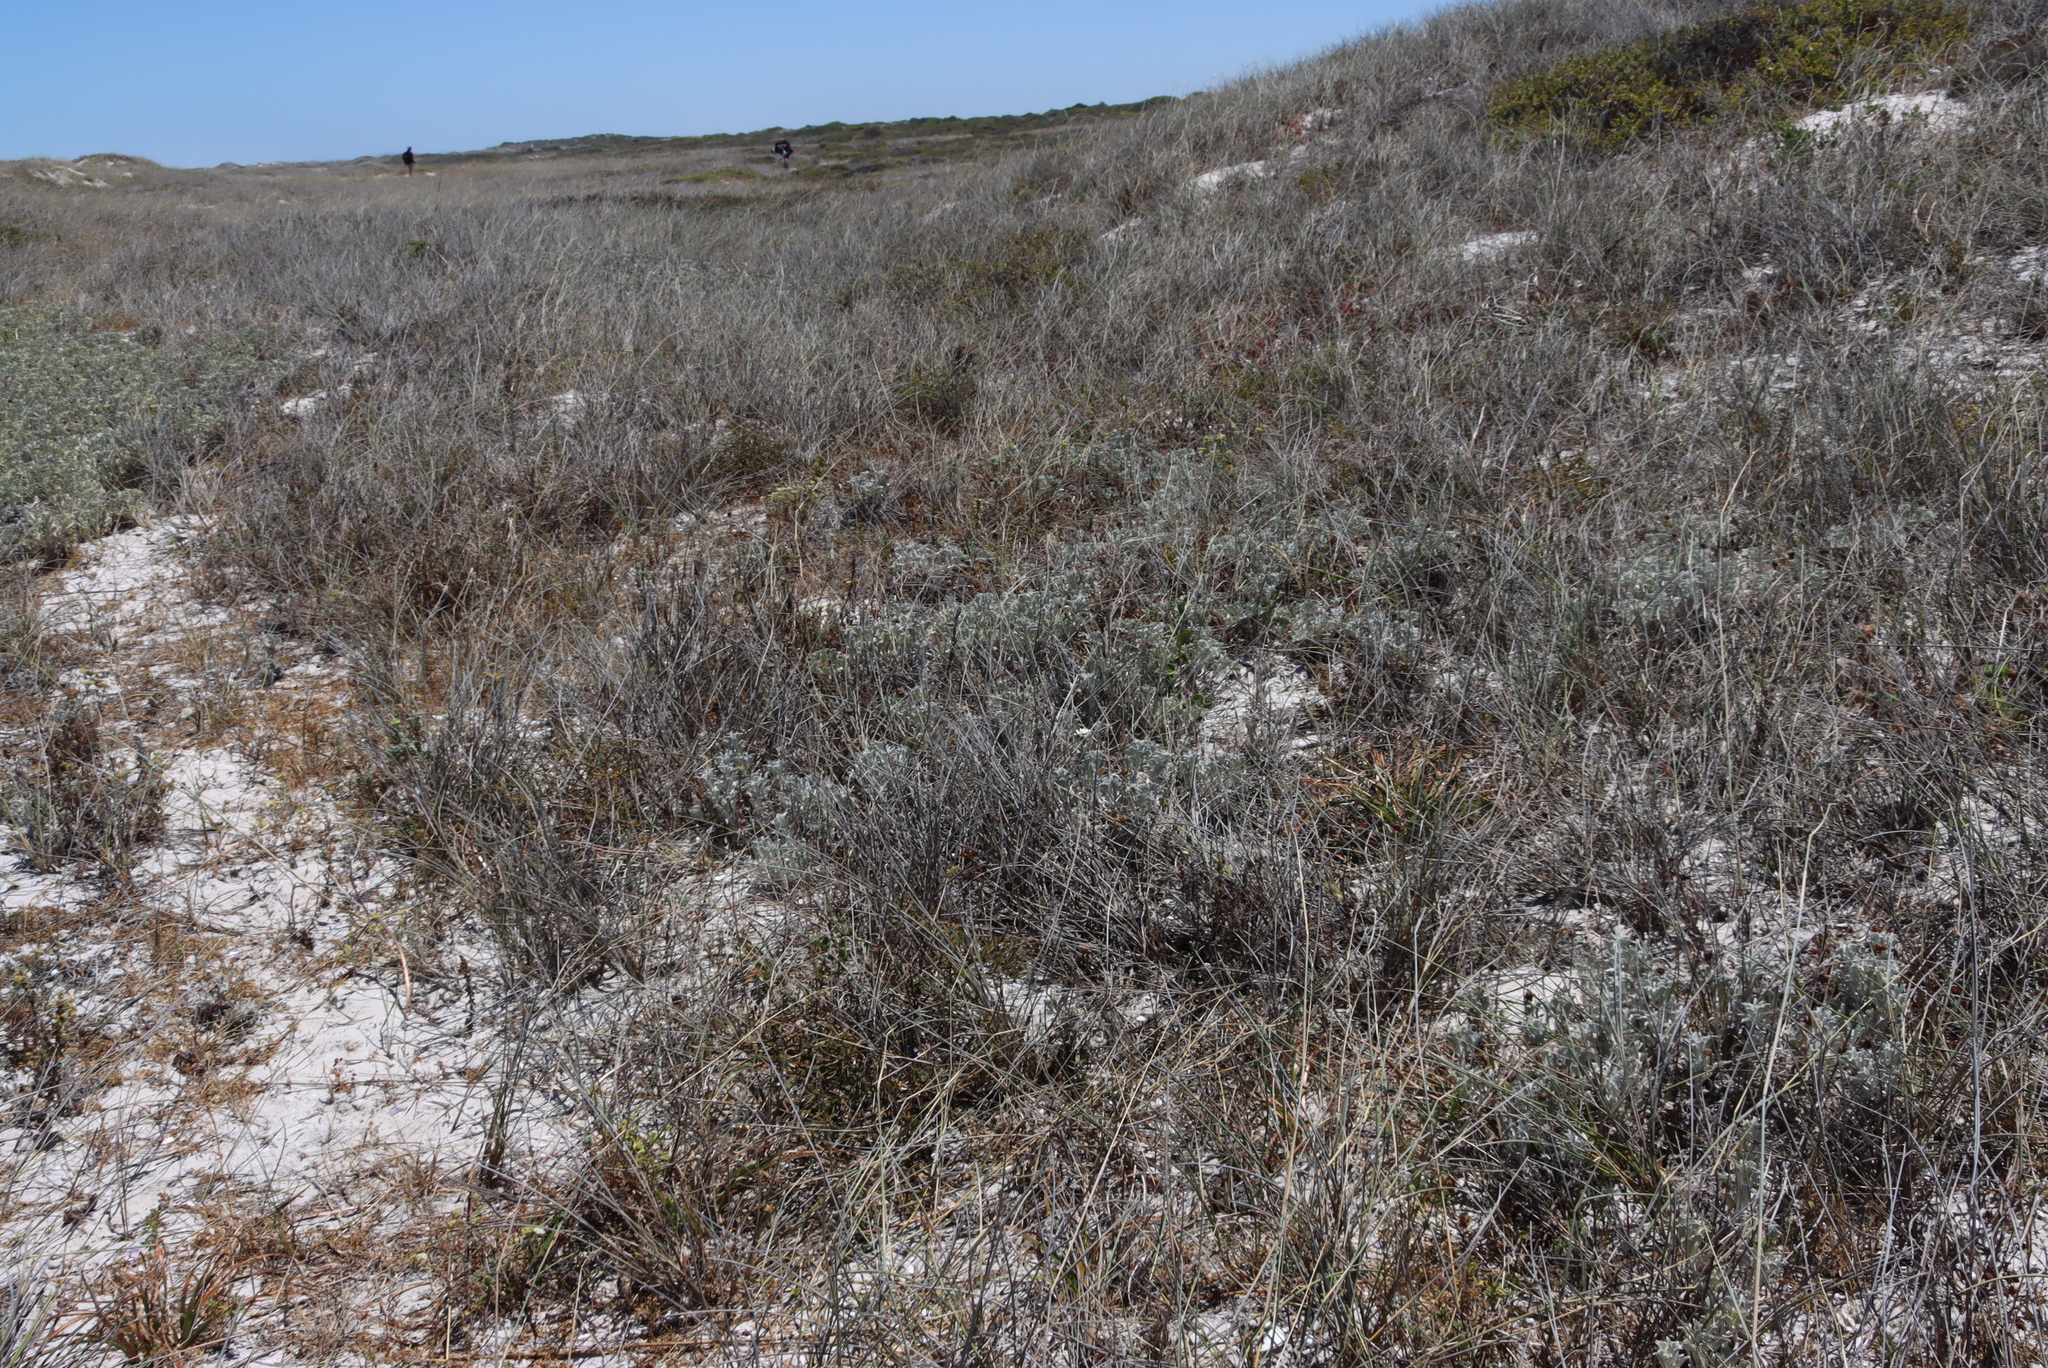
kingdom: Plantae
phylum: Tracheophyta
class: Magnoliopsida
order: Asterales
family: Asteraceae
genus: Arctotis
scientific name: Arctotis stoechadifolia
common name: African daisy
